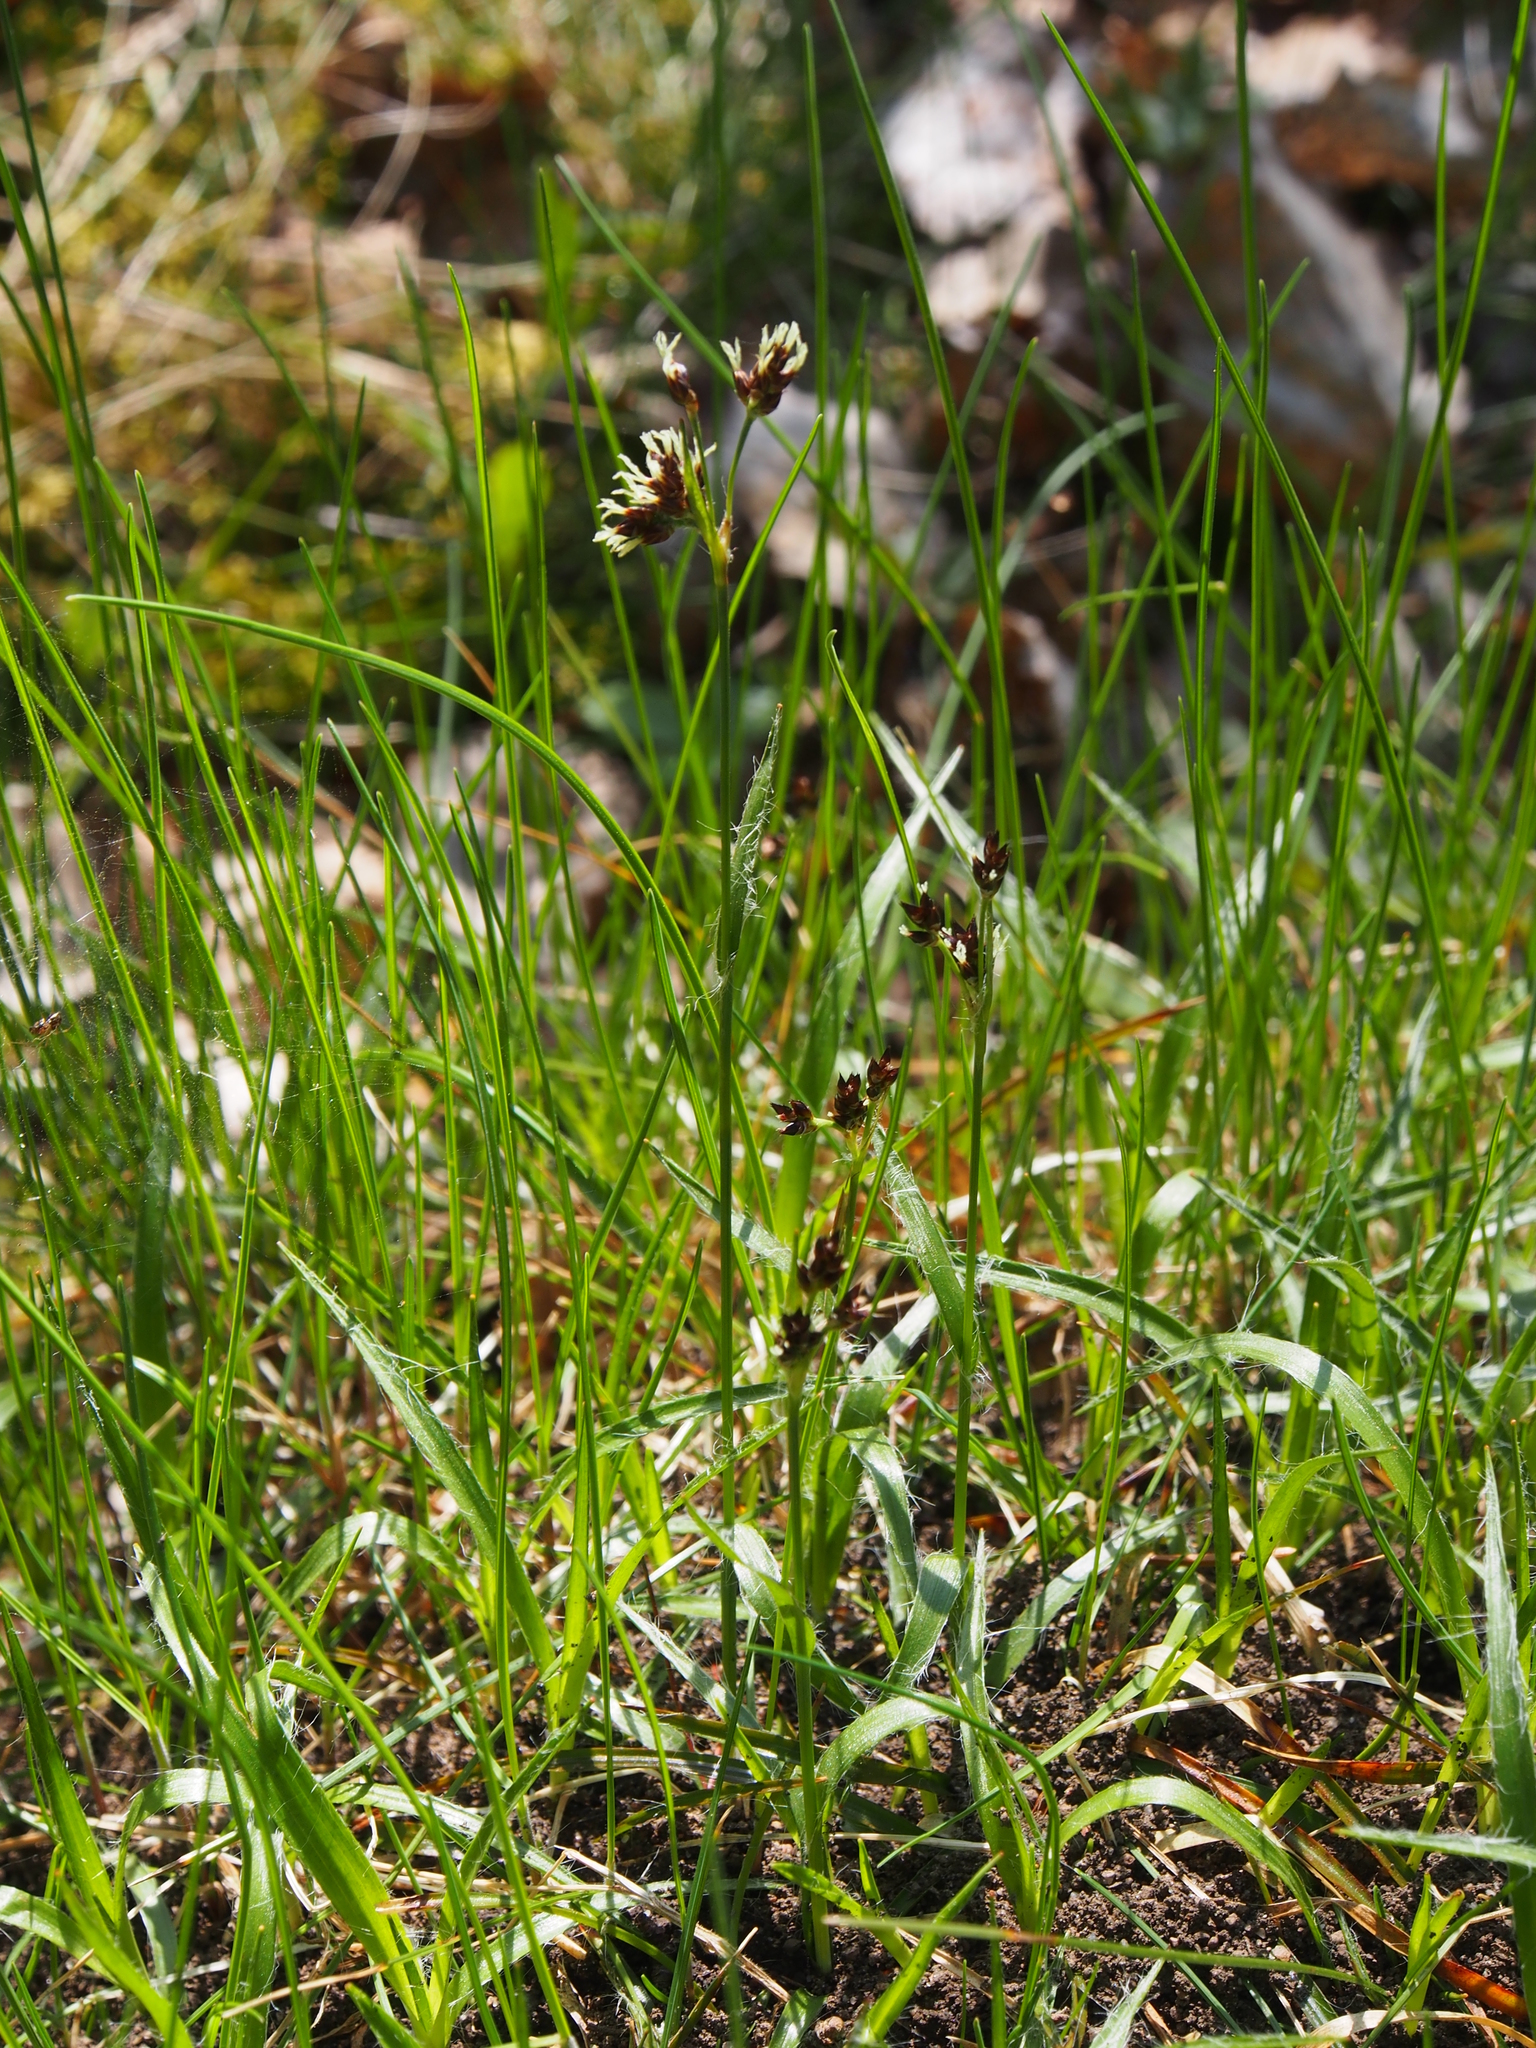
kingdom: Plantae
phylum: Tracheophyta
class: Liliopsida
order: Poales
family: Juncaceae
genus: Luzula
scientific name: Luzula campestris
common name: Field wood-rush
